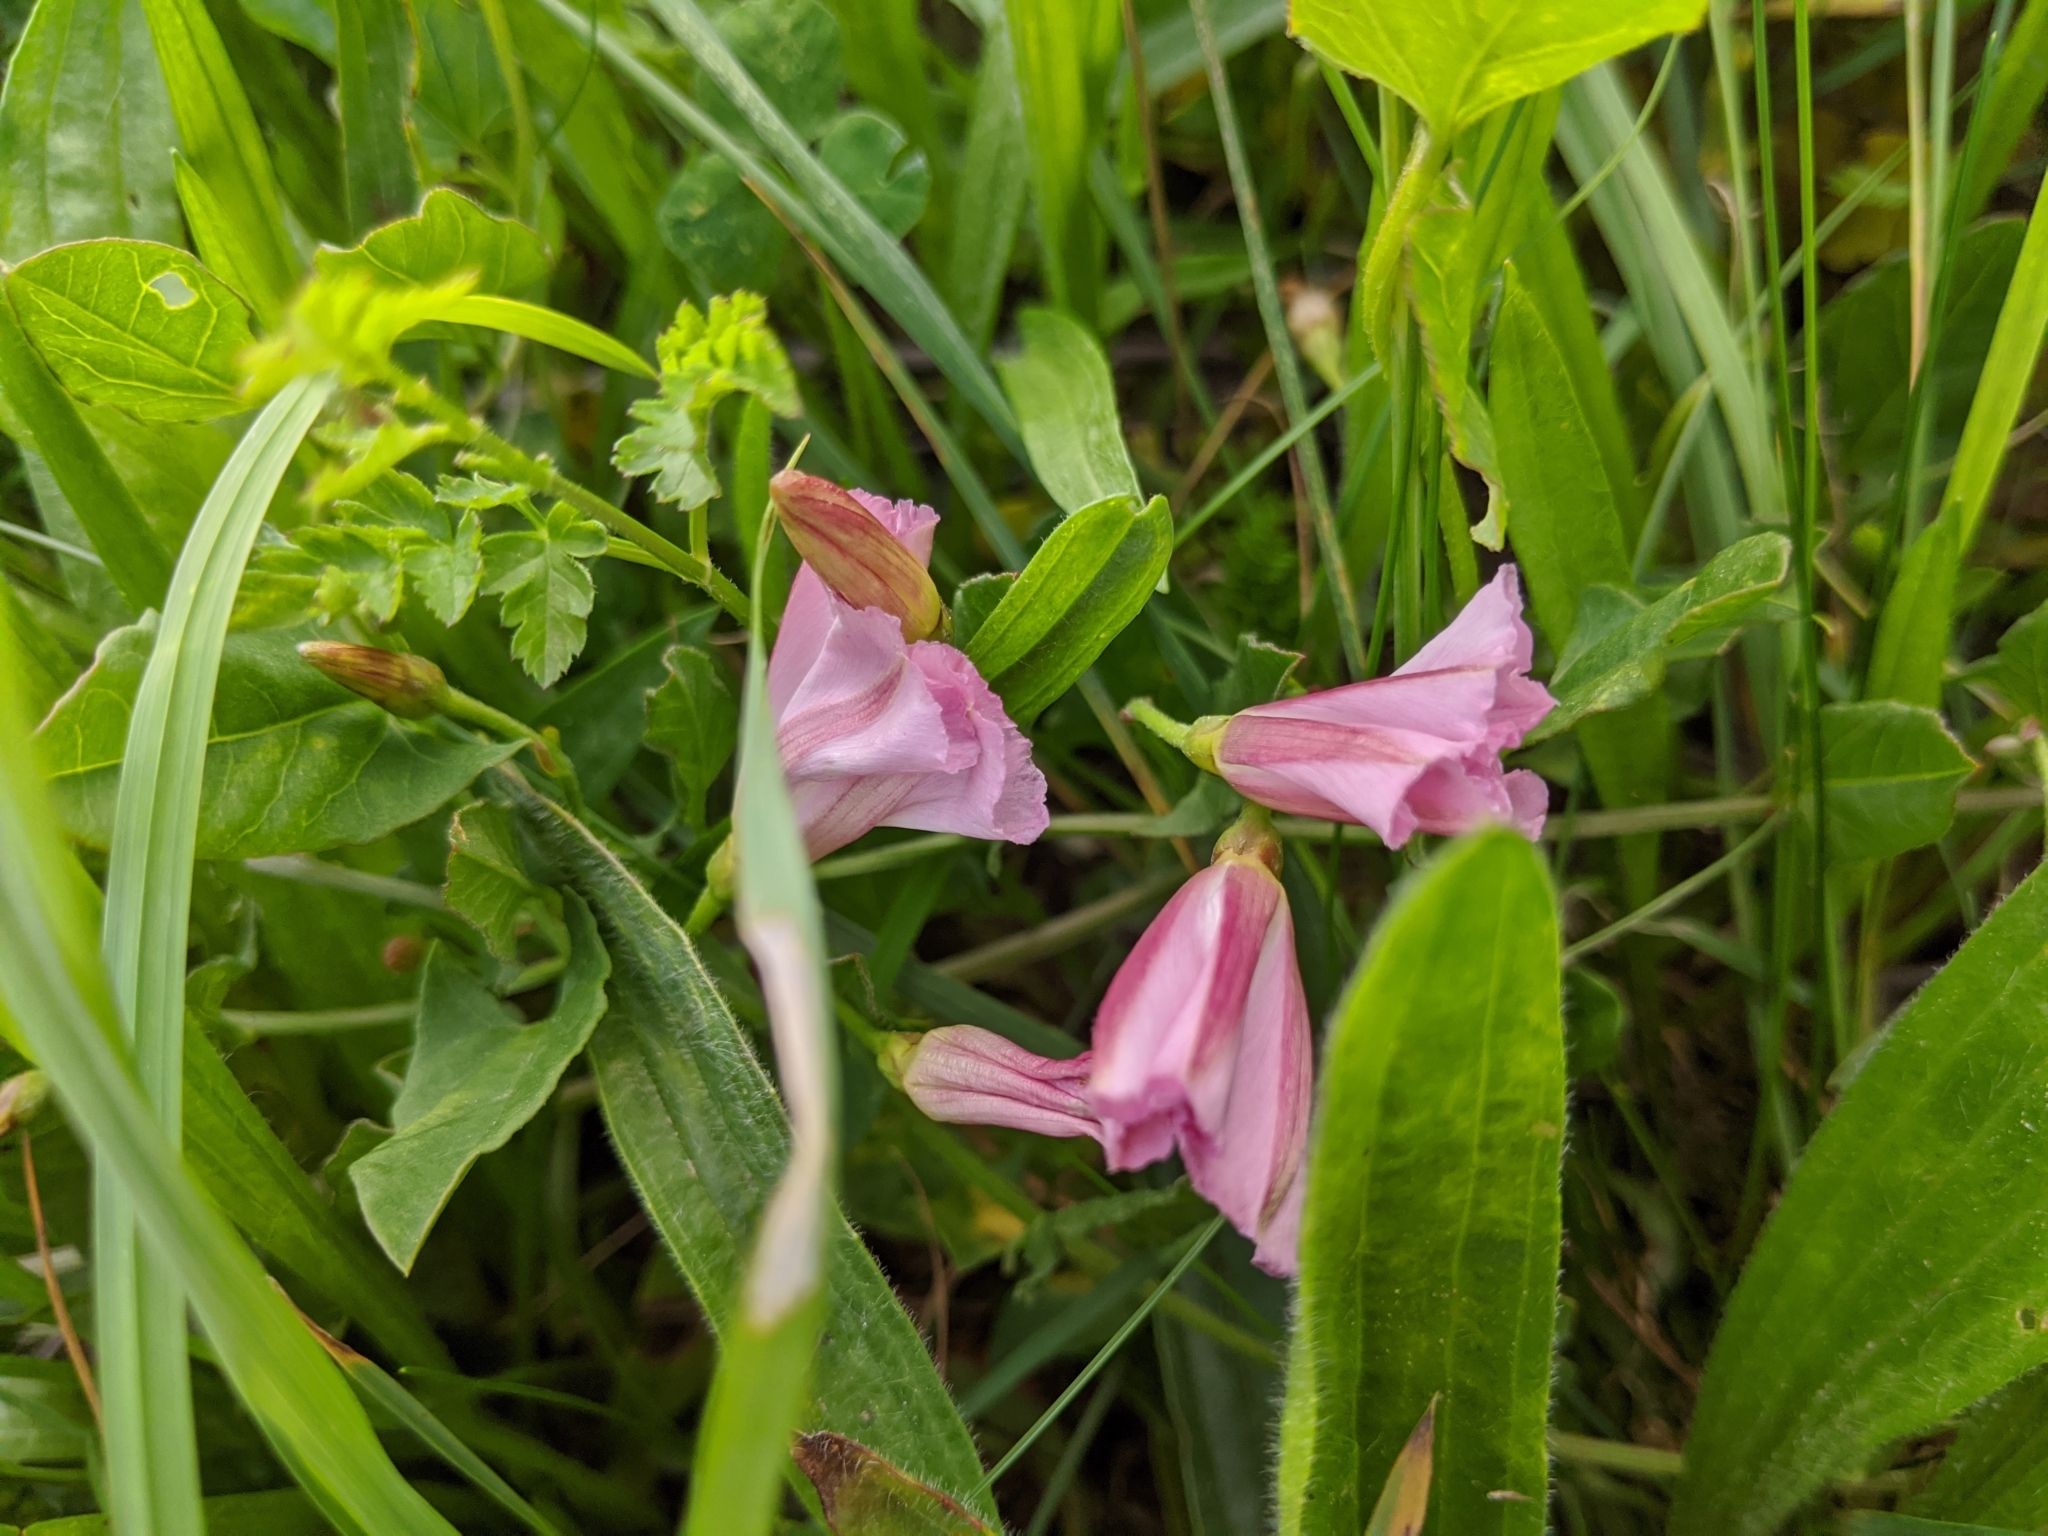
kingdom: Plantae
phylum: Tracheophyta
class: Magnoliopsida
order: Solanales
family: Convolvulaceae
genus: Convolvulus
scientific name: Convolvulus arvensis
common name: Field bindweed
